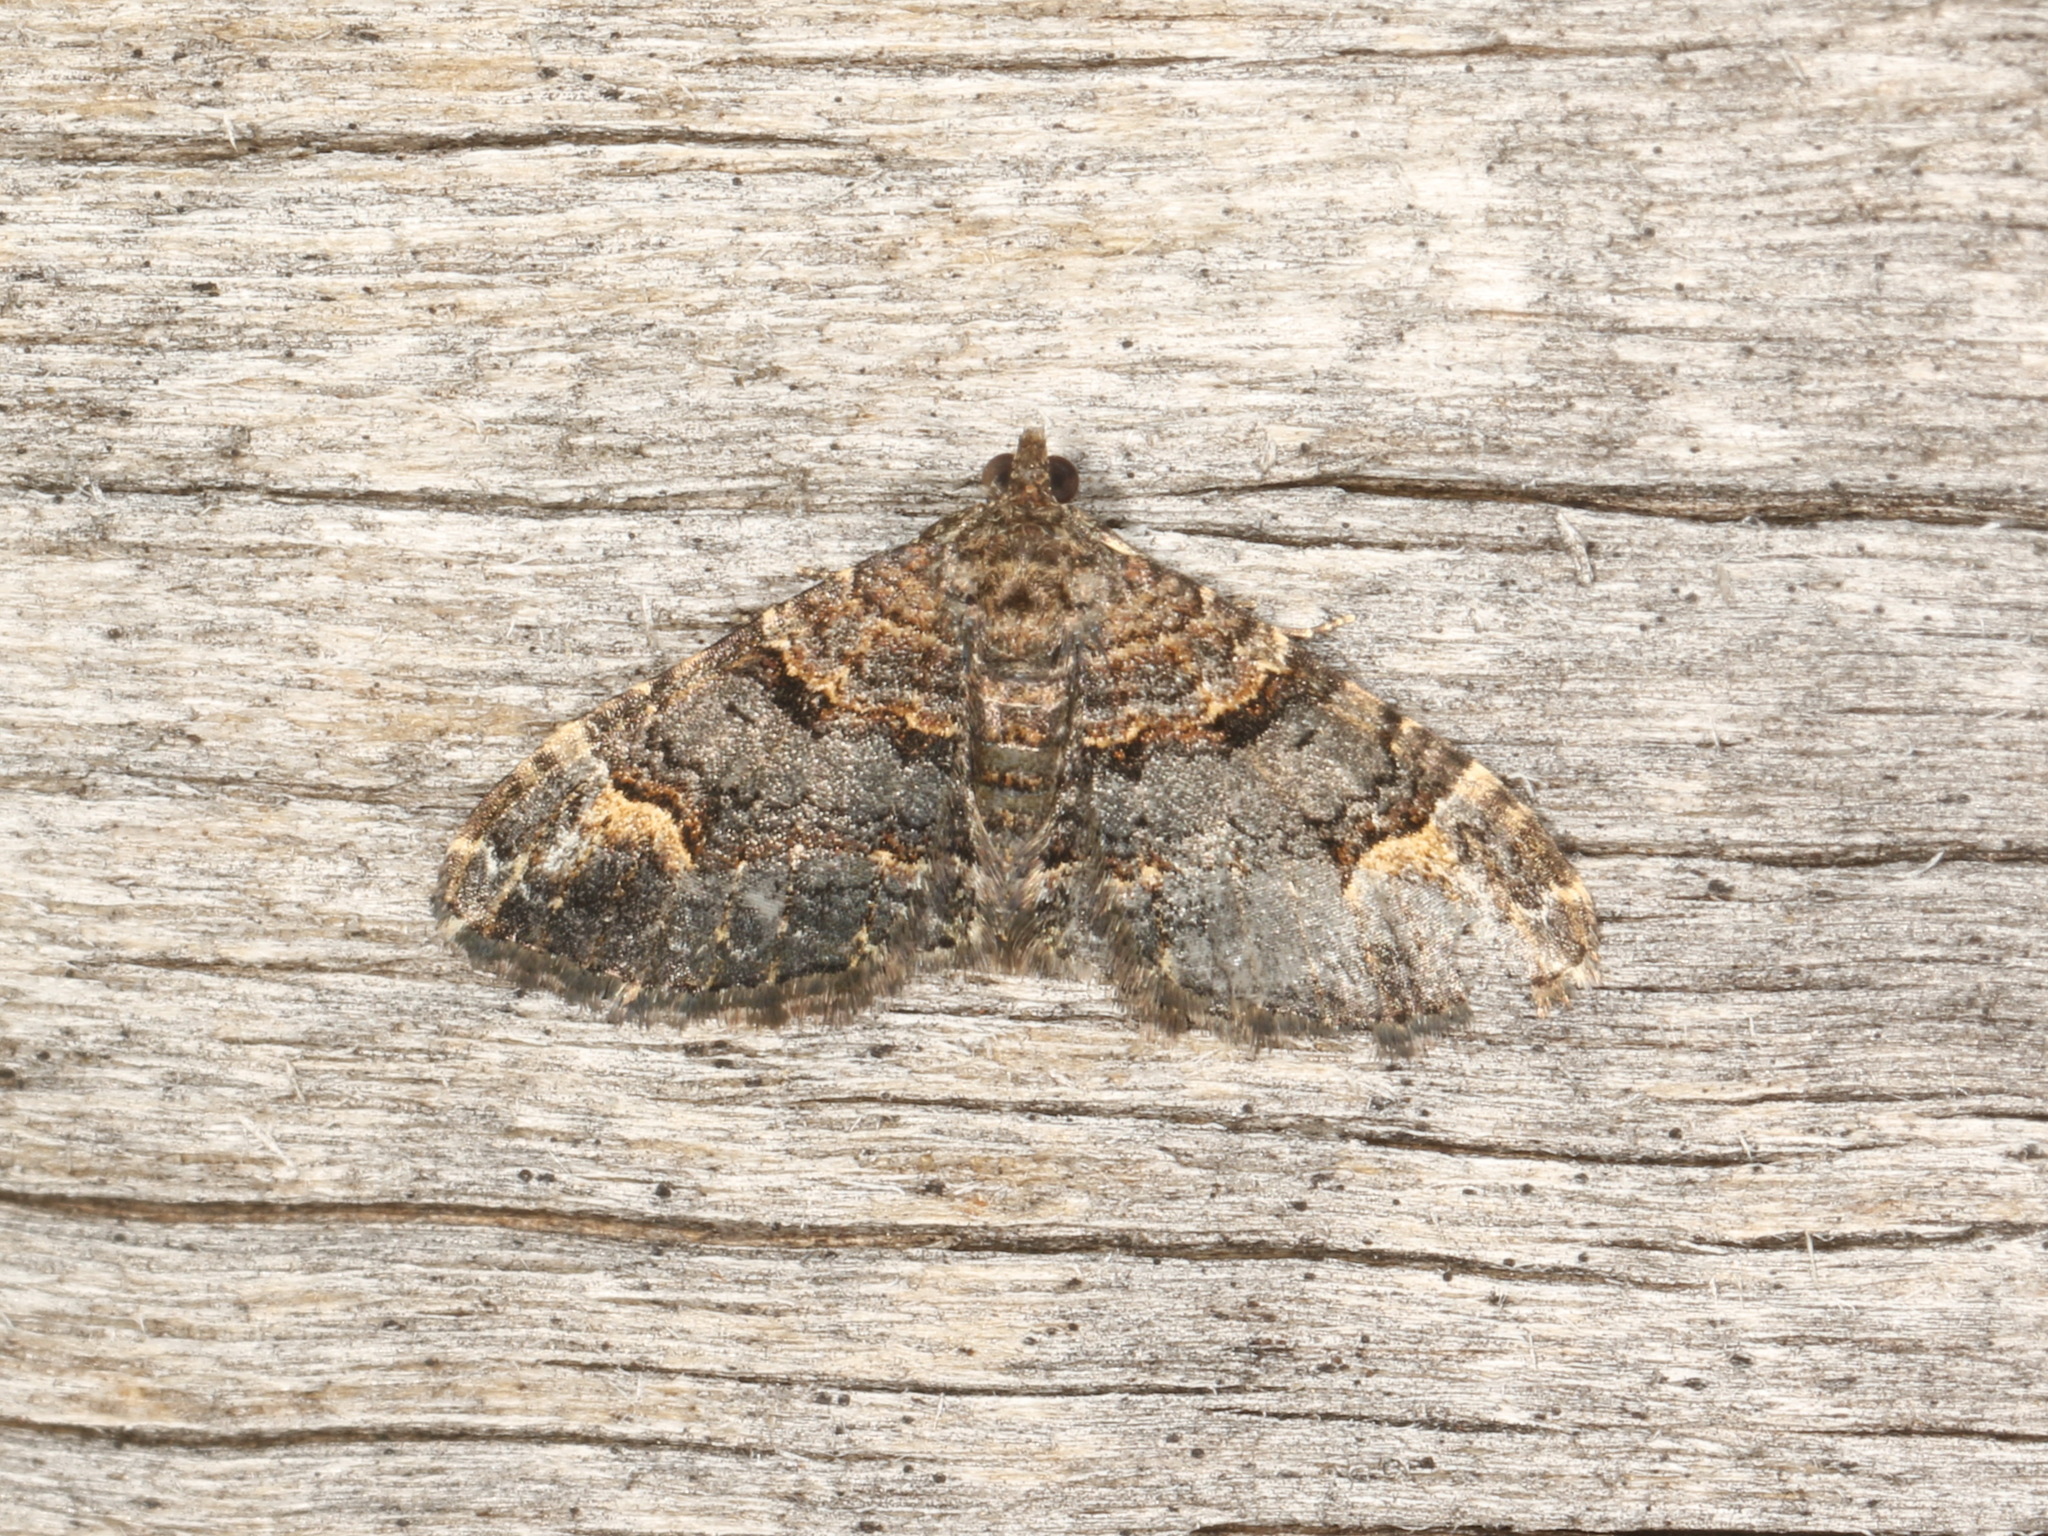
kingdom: Animalia
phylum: Arthropoda
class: Insecta
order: Lepidoptera
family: Geometridae
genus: Epyaxa
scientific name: Epyaxa sodaliata
